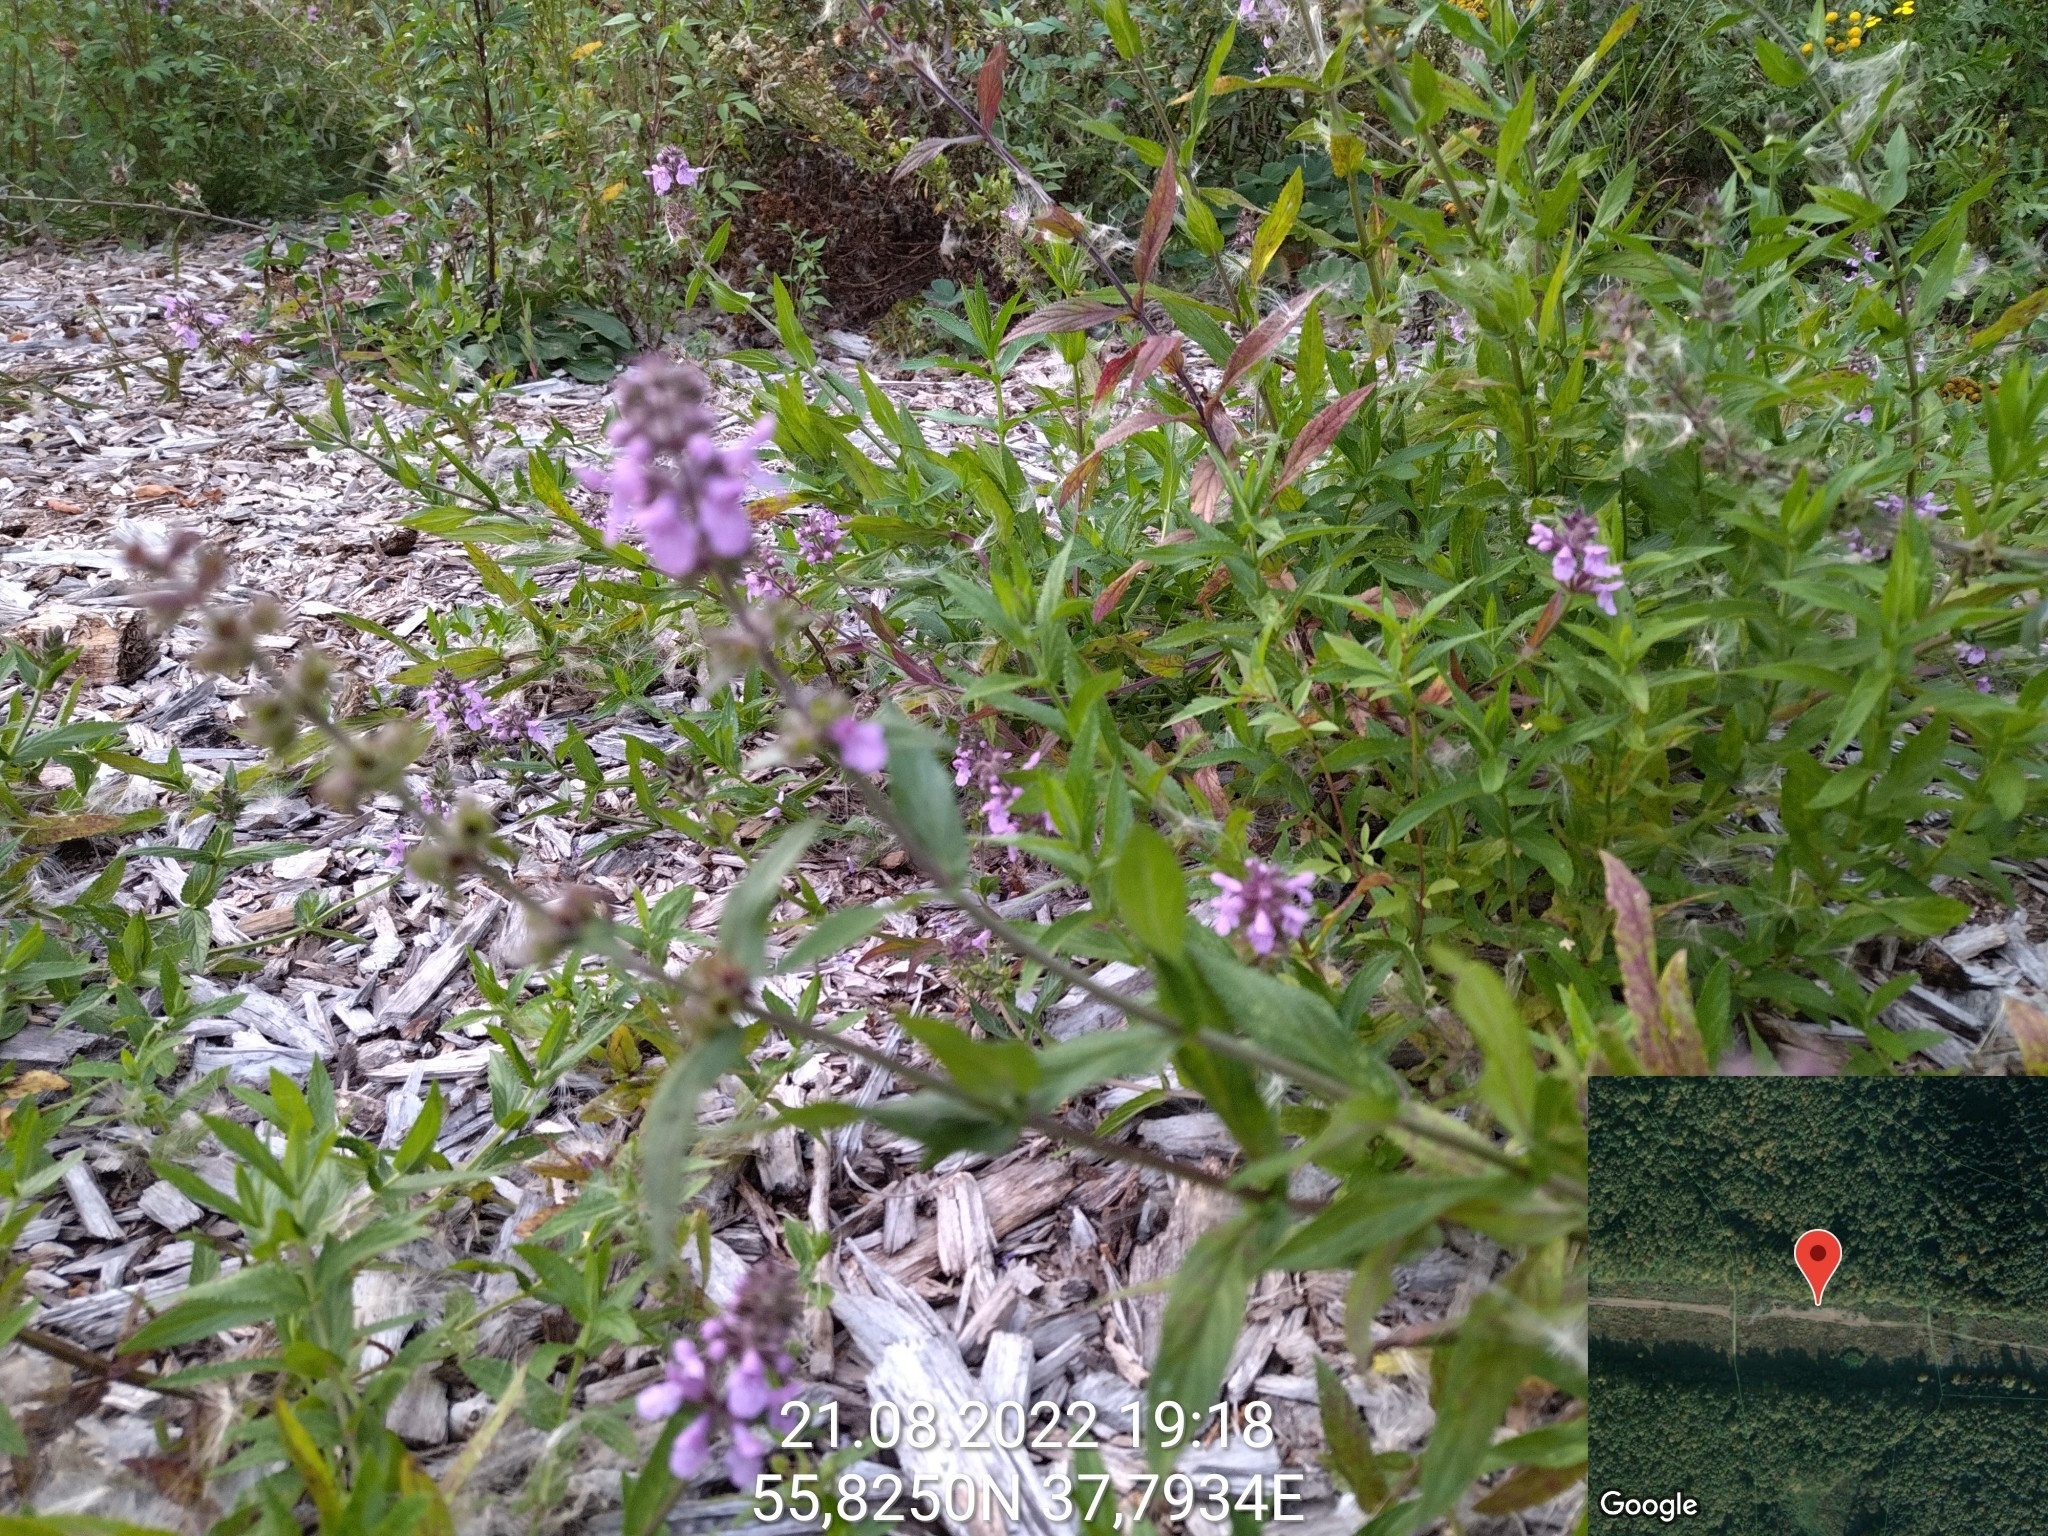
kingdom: Plantae
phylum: Tracheophyta
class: Magnoliopsida
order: Lamiales
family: Lamiaceae
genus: Stachys
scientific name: Stachys palustris
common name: Marsh woundwort
